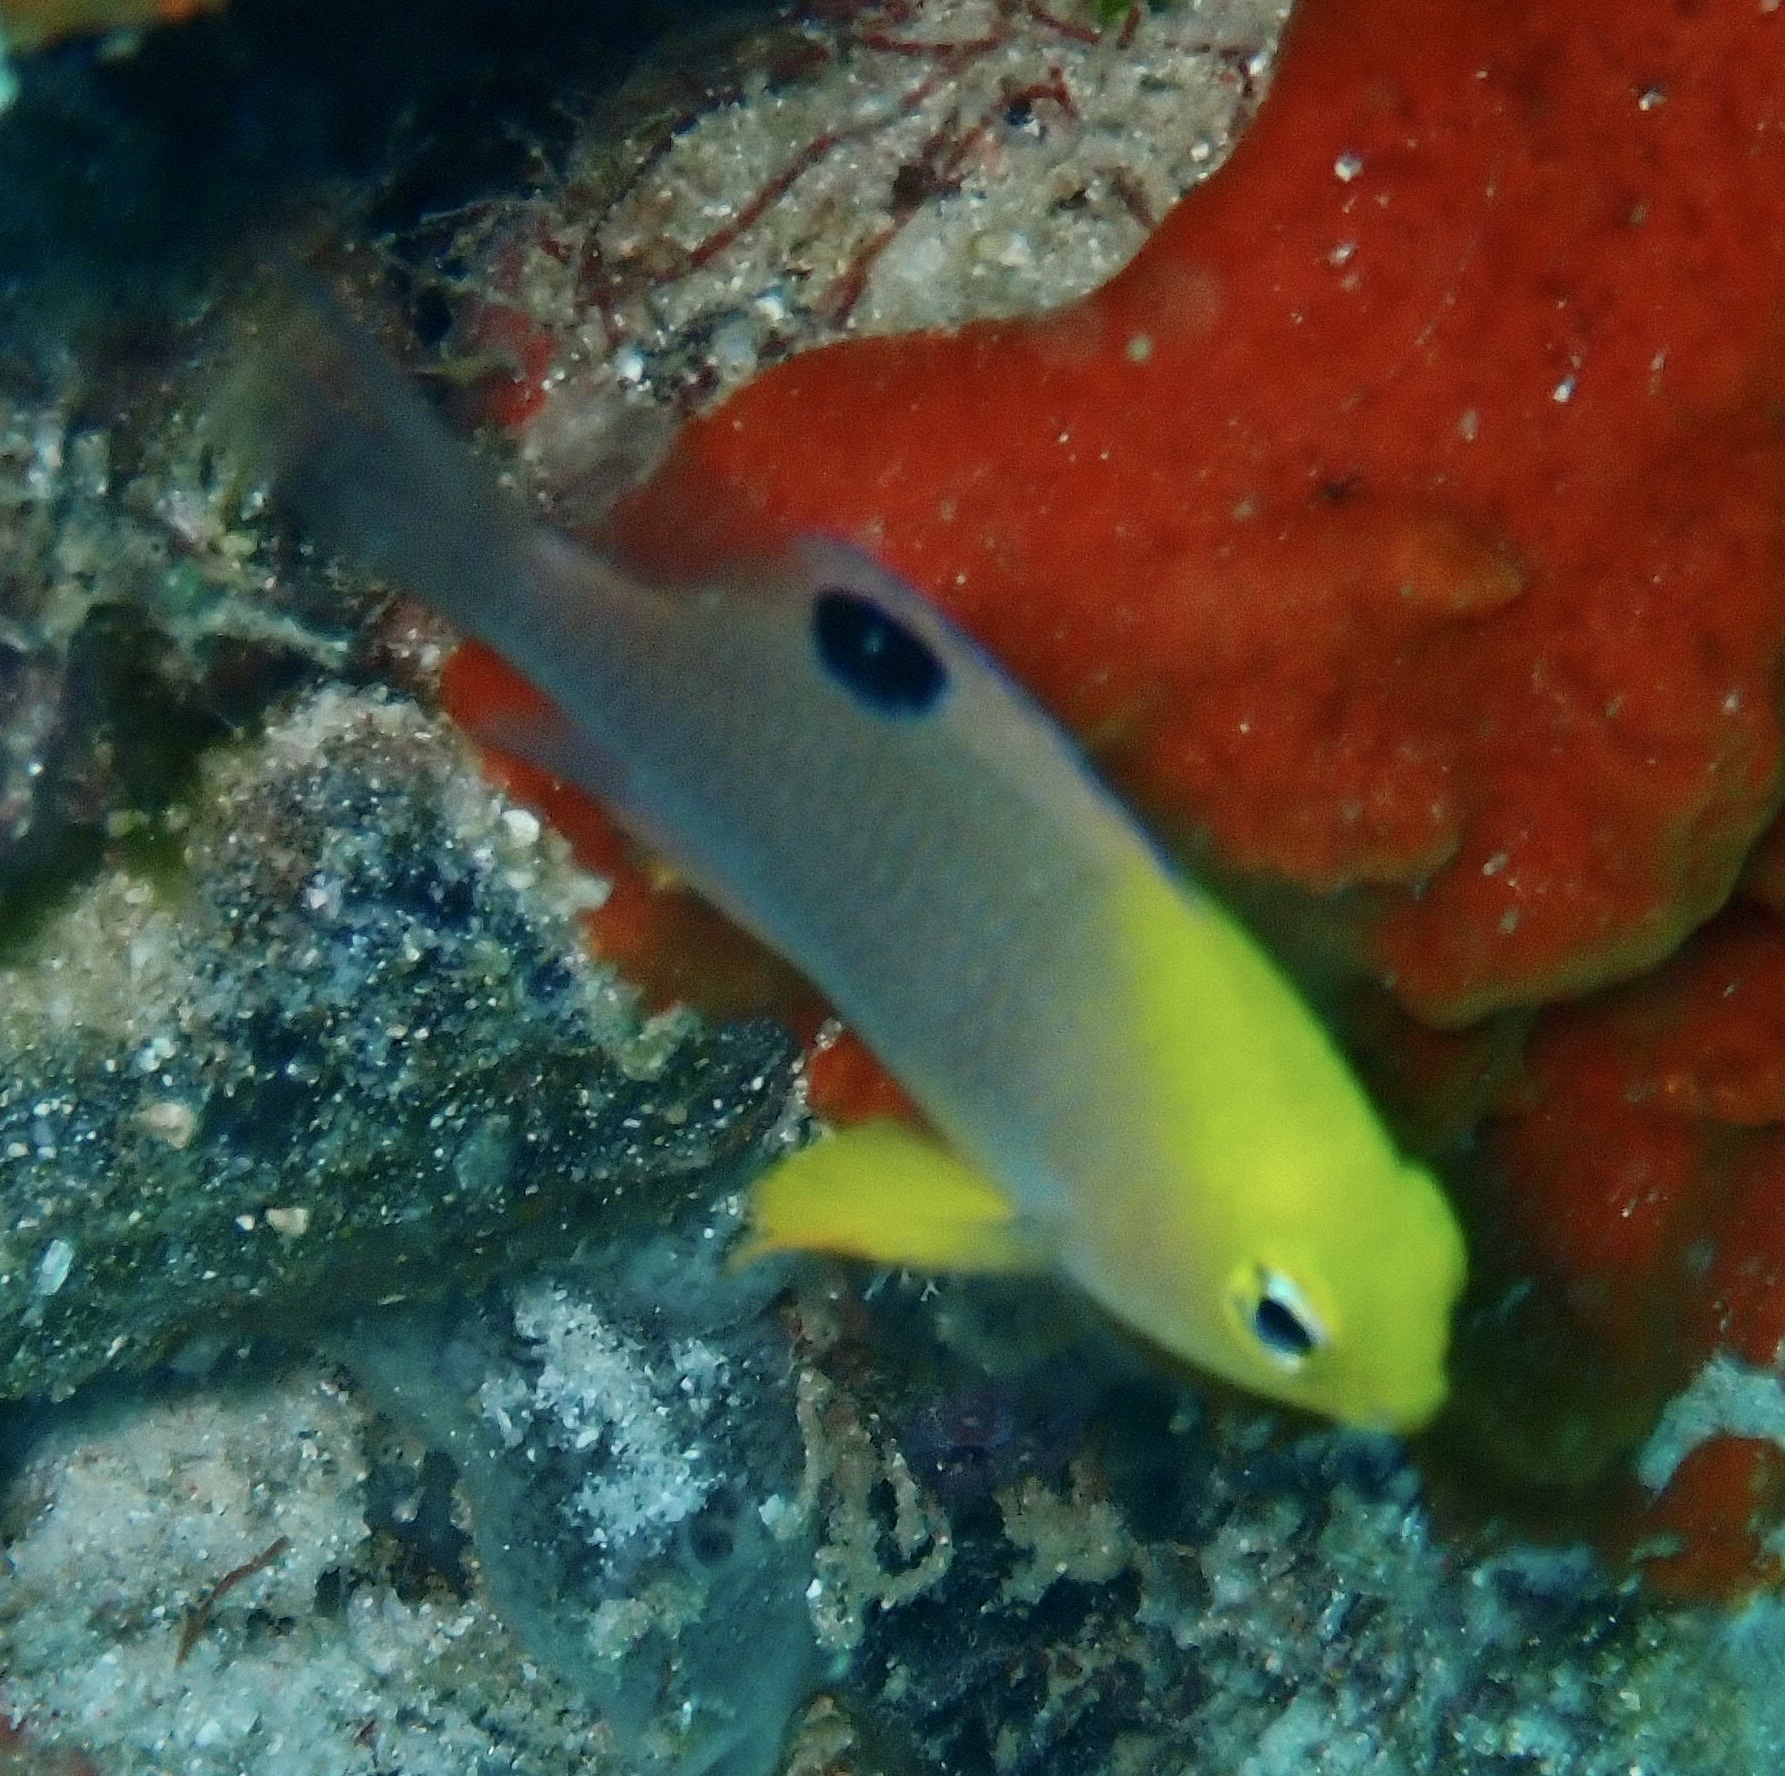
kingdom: Animalia
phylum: Chordata
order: Perciformes
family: Pomacentridae
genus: Chrysiptera
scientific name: Chrysiptera talboti
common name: Talbot's demoiselle
